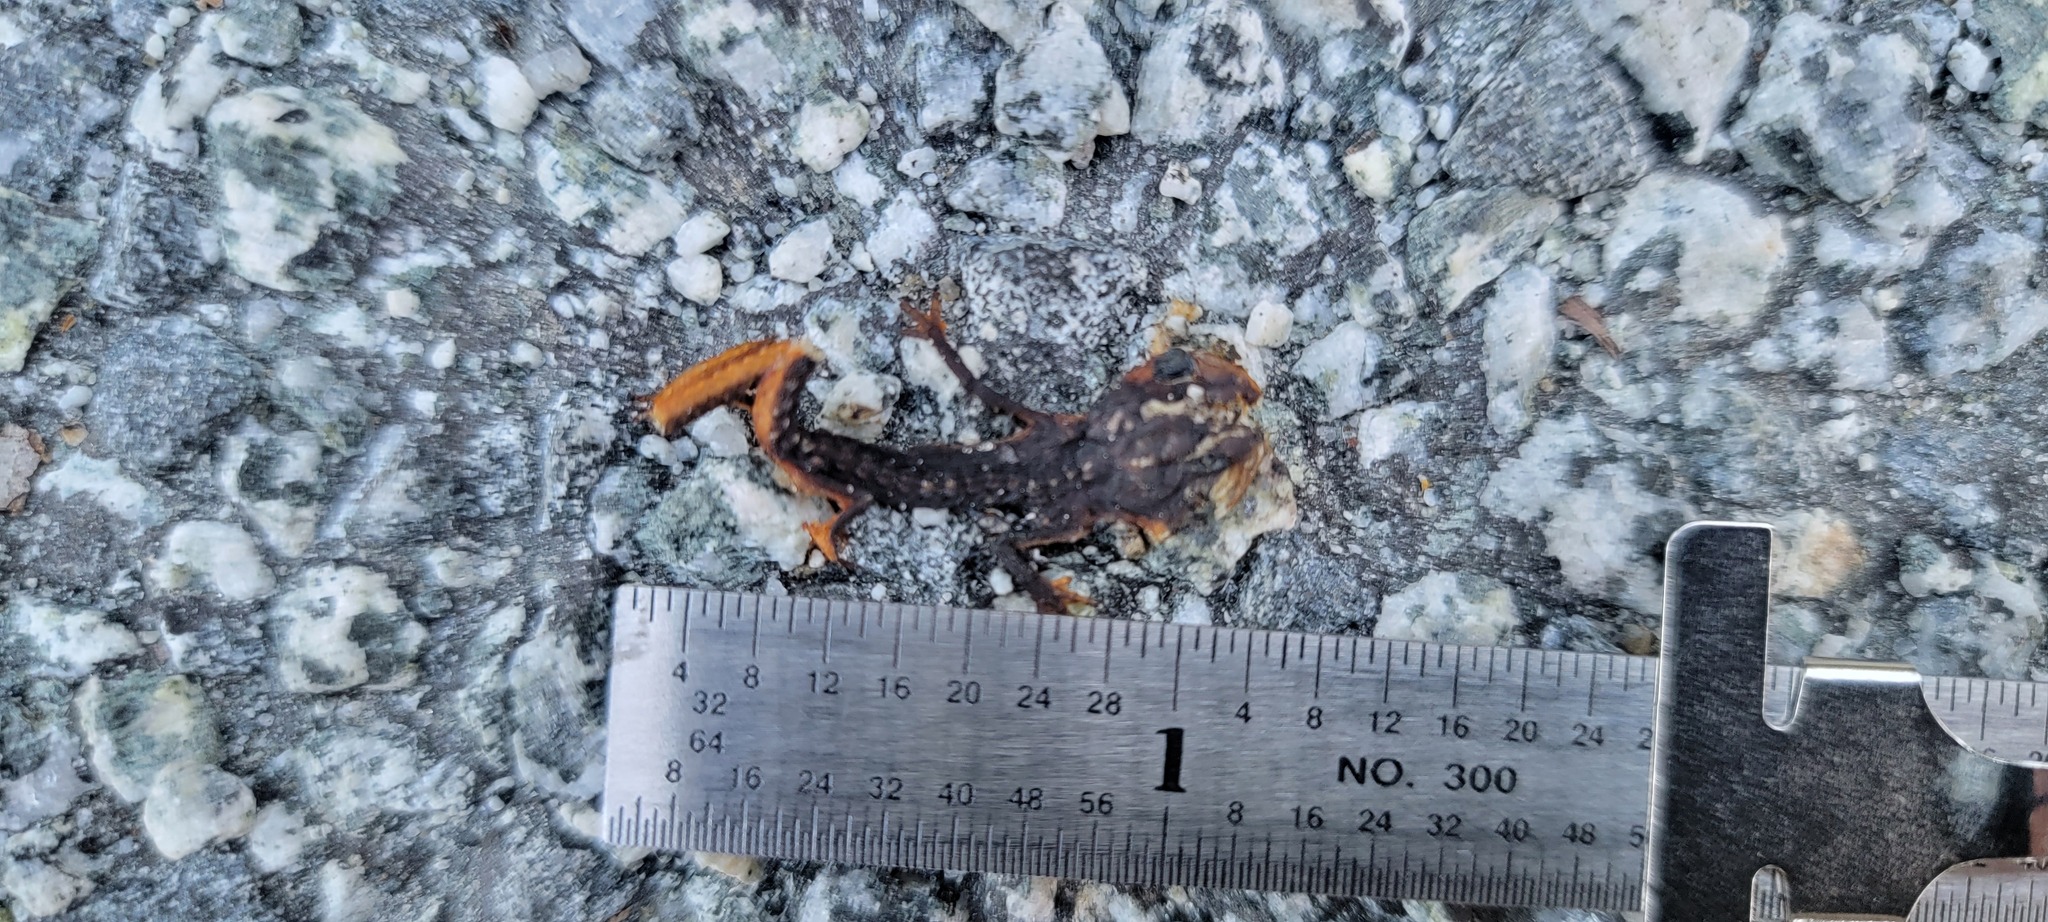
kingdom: Animalia
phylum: Chordata
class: Amphibia
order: Caudata
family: Salamandridae
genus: Taricha
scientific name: Taricha
